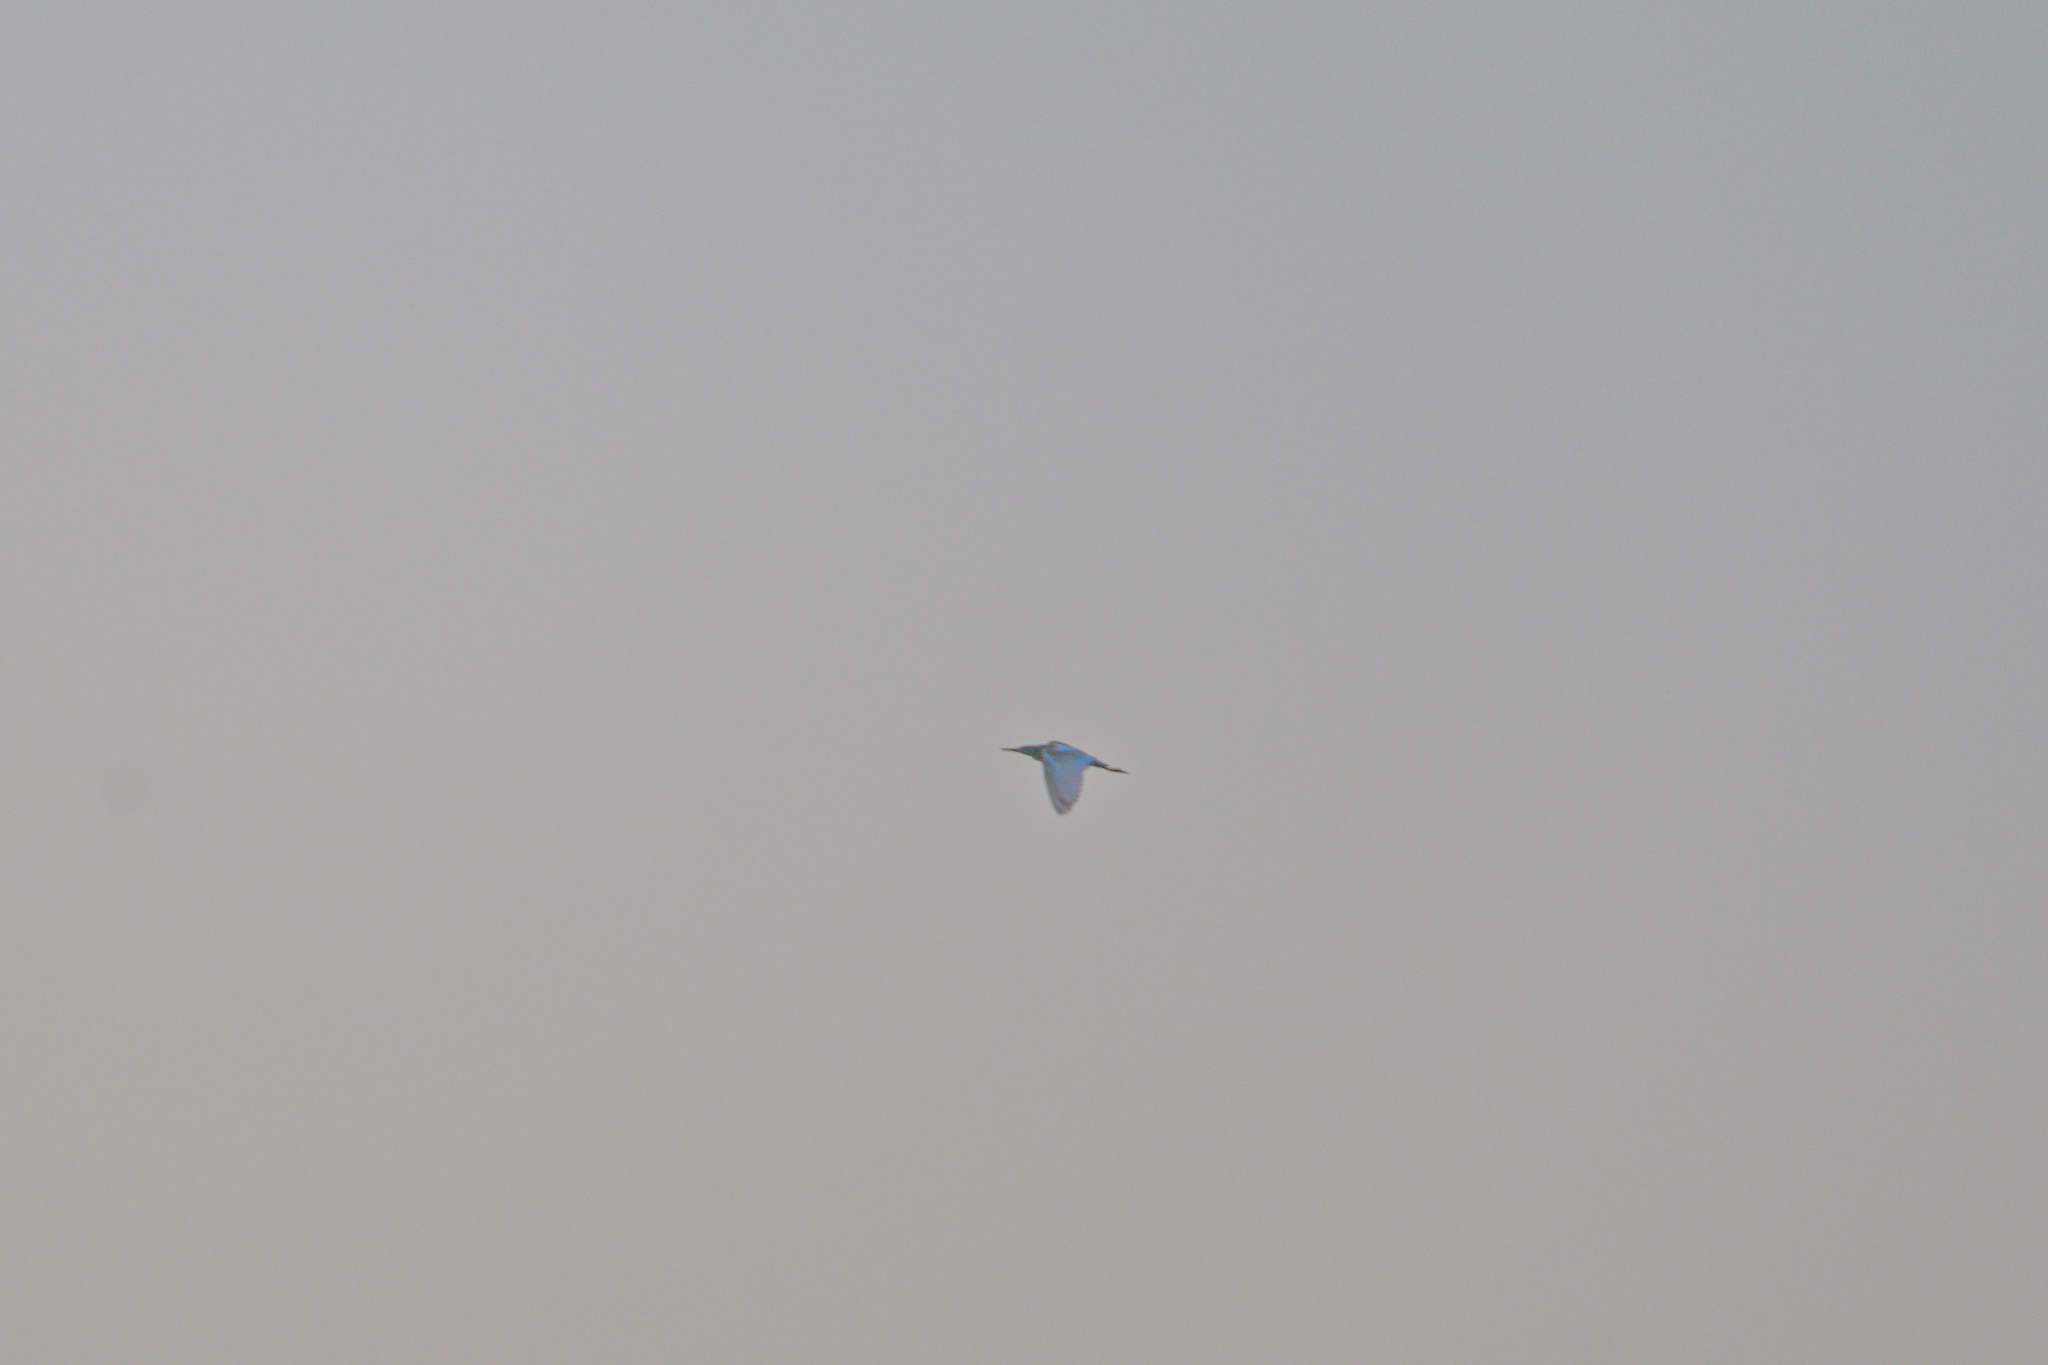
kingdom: Animalia
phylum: Chordata
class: Aves
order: Pelecaniformes
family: Ardeidae
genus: Ardeola
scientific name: Ardeola ralloides
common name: Squacco heron
